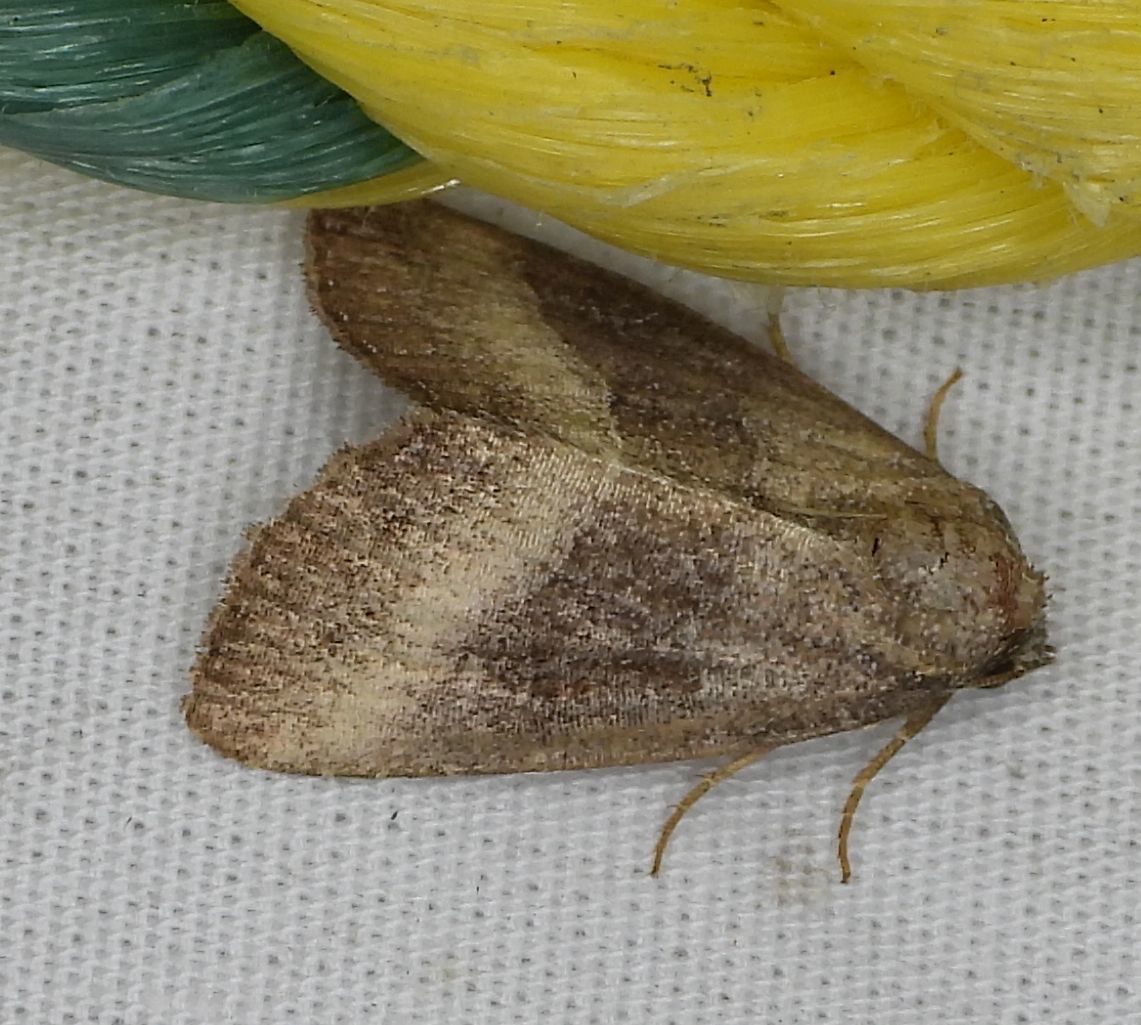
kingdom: Animalia
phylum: Arthropoda
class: Insecta
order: Lepidoptera
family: Noctuidae
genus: Ogdoconta
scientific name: Ogdoconta cinereola
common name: Common pinkband
